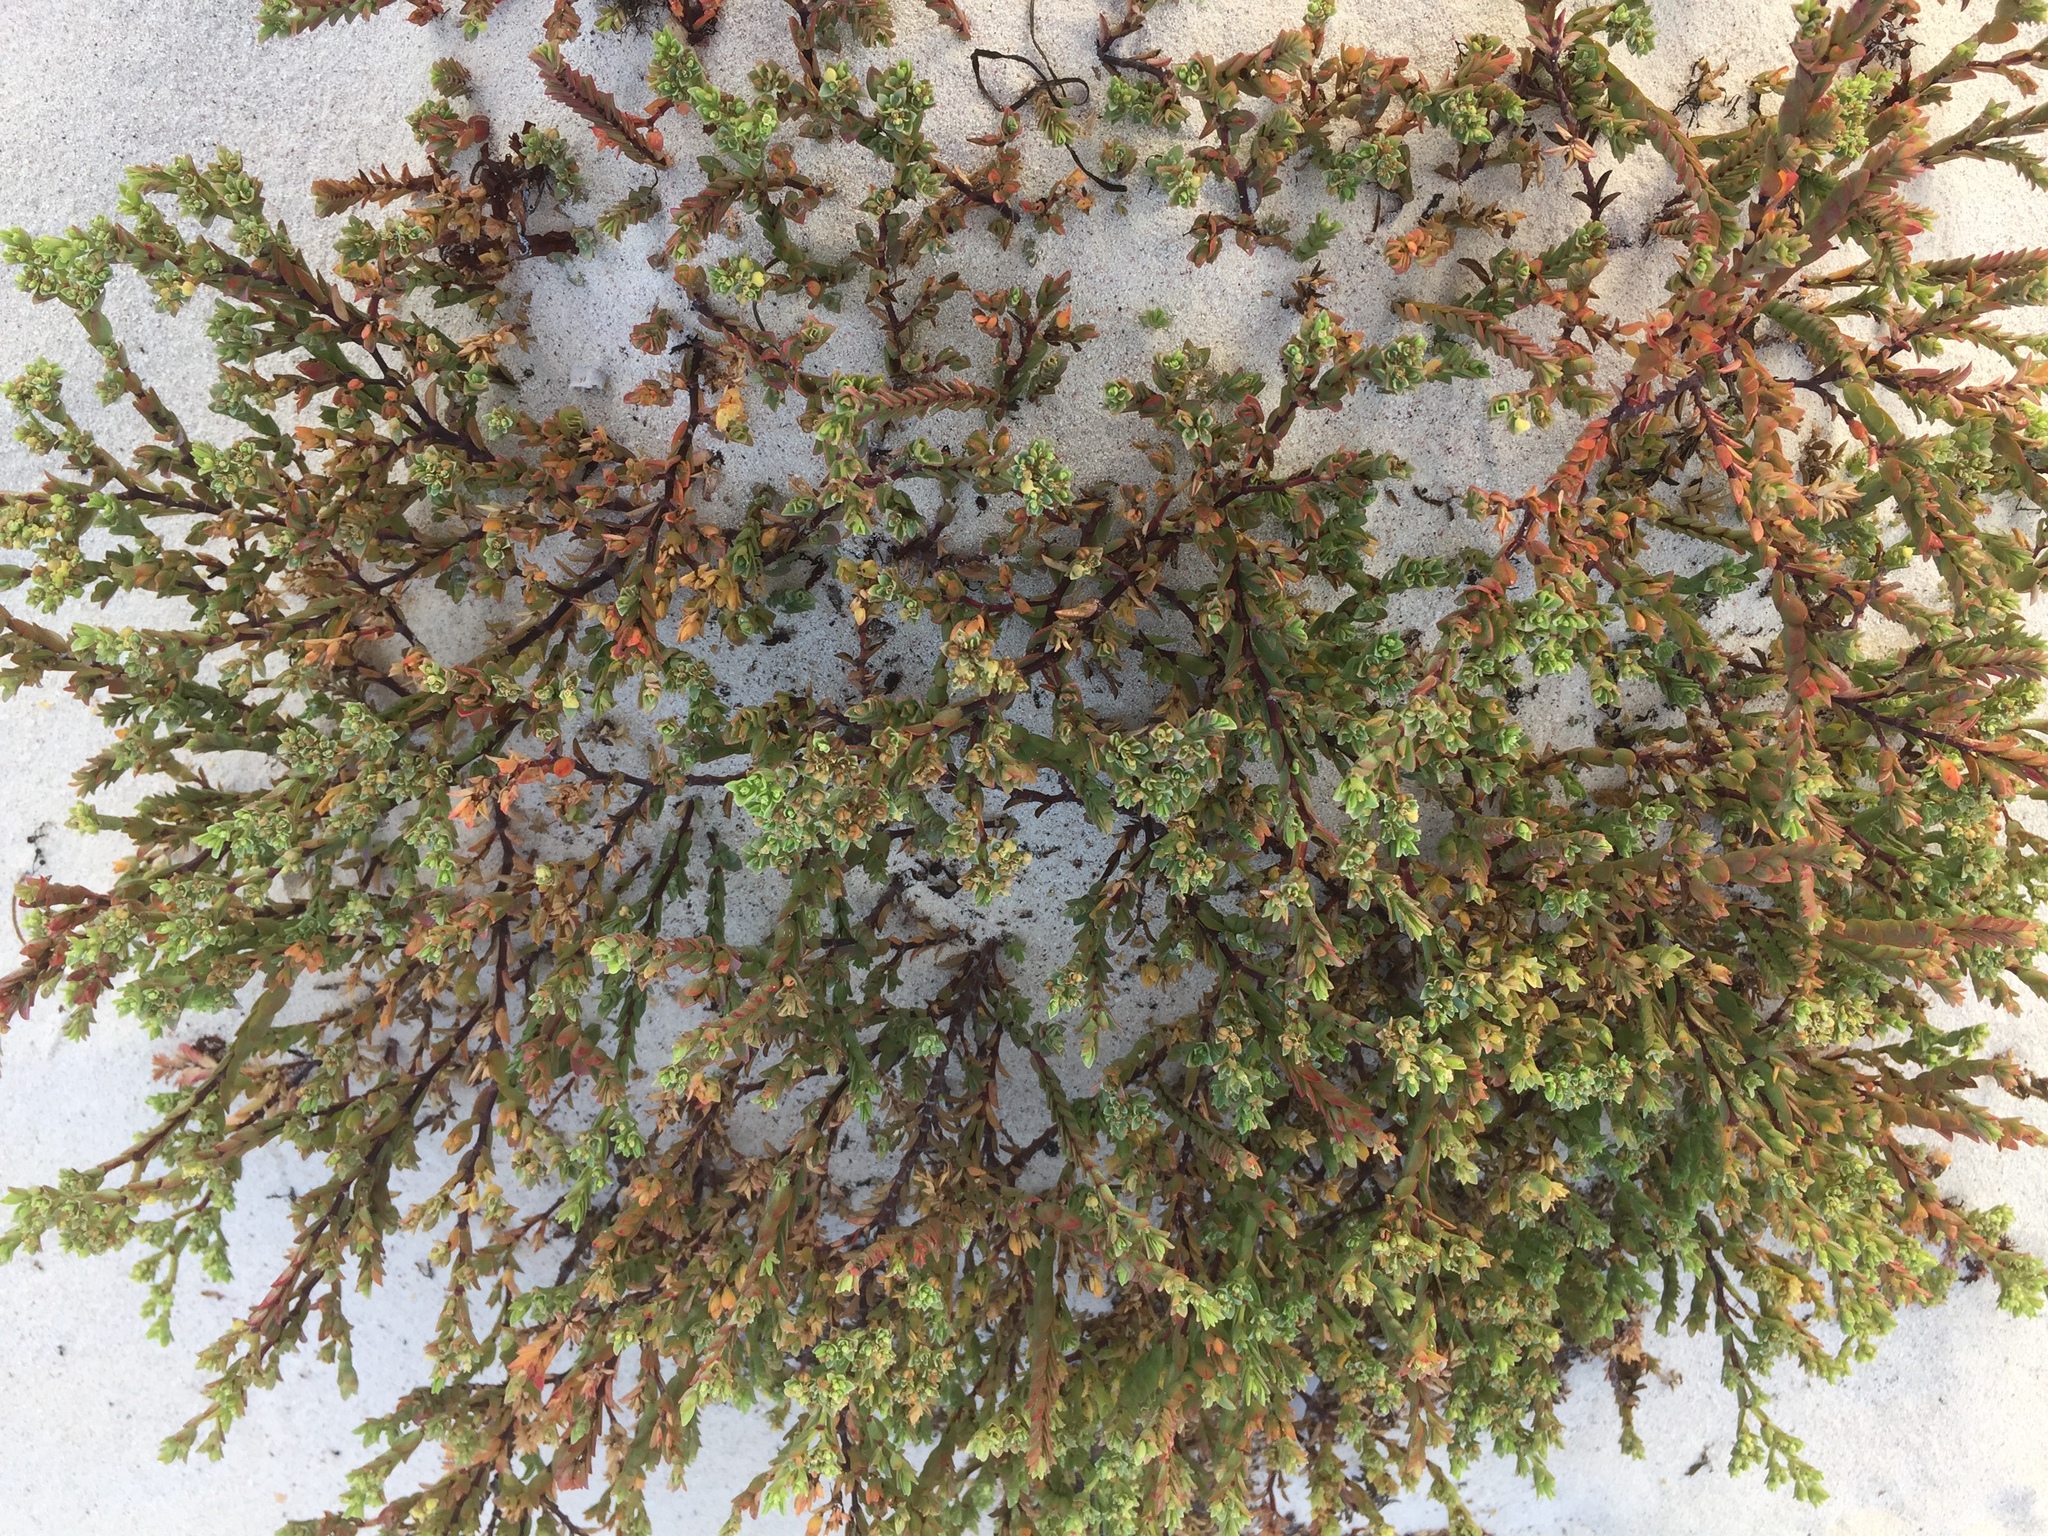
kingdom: Plantae
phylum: Tracheophyta
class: Magnoliopsida
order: Malpighiales
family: Euphorbiaceae
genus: Euphorbia
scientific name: Euphorbia mesembryanthemifolia
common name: Coastal beach sandmat
